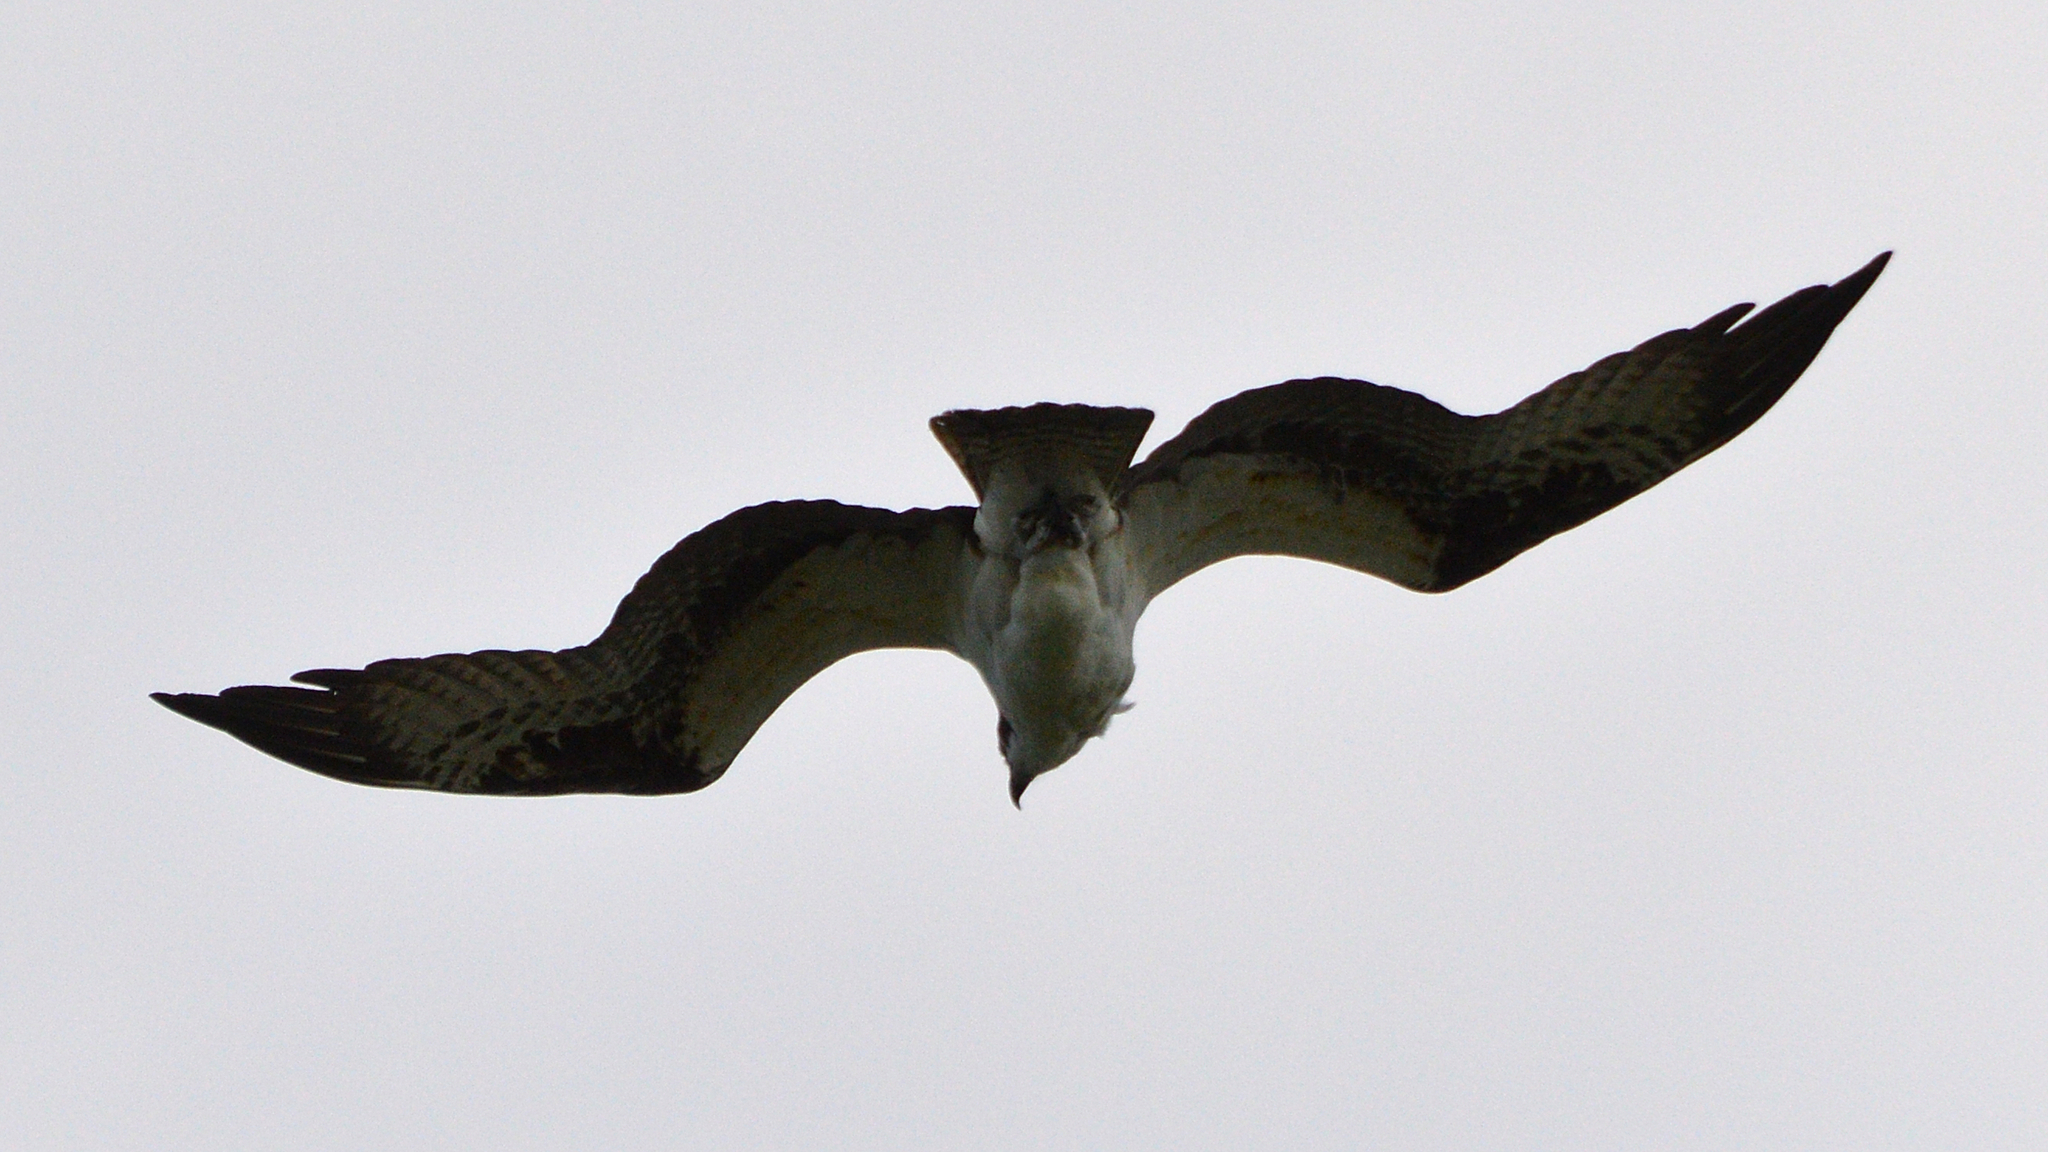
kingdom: Animalia
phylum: Chordata
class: Aves
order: Accipitriformes
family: Pandionidae
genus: Pandion
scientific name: Pandion haliaetus
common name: Osprey
